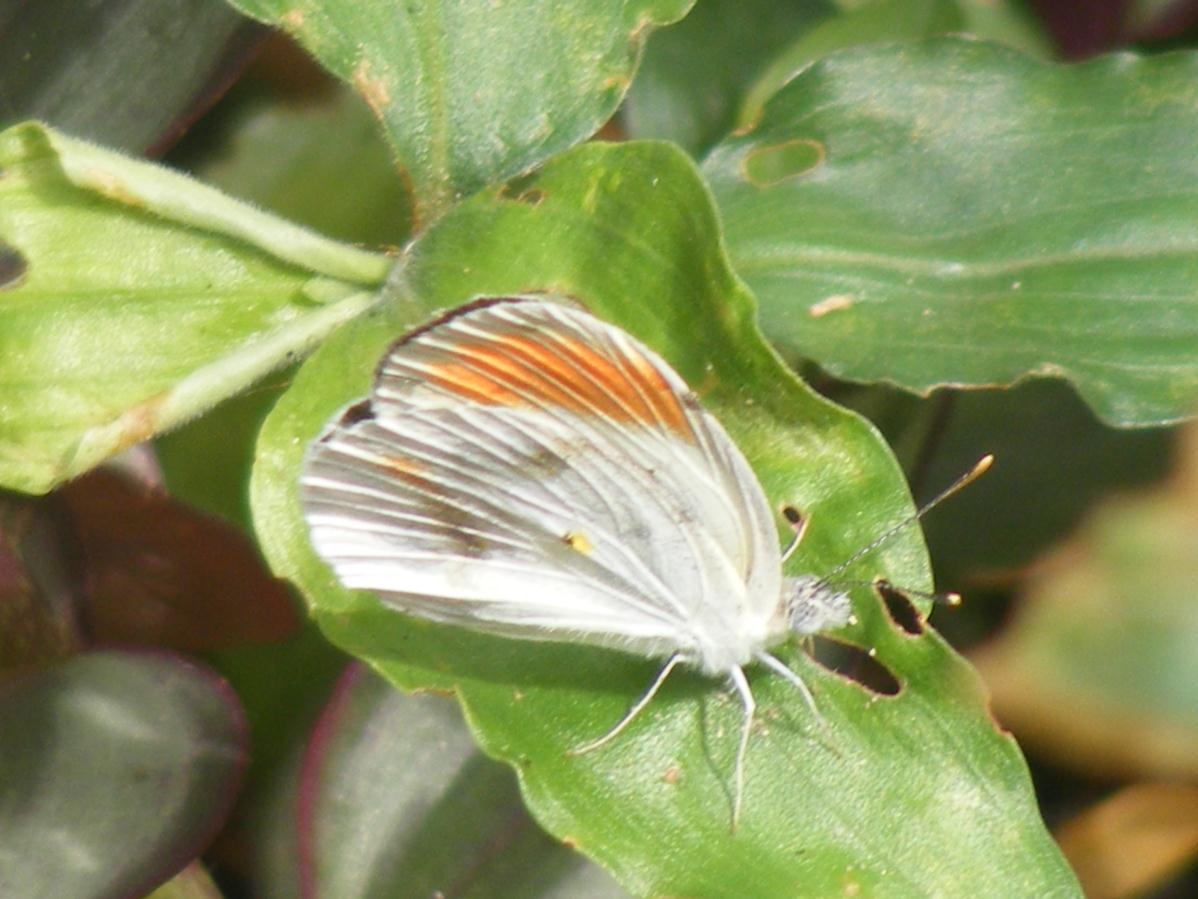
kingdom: Animalia
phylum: Arthropoda
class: Insecta
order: Lepidoptera
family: Pieridae
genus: Colotis
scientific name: Colotis euippe
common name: Round-winged orange tip
